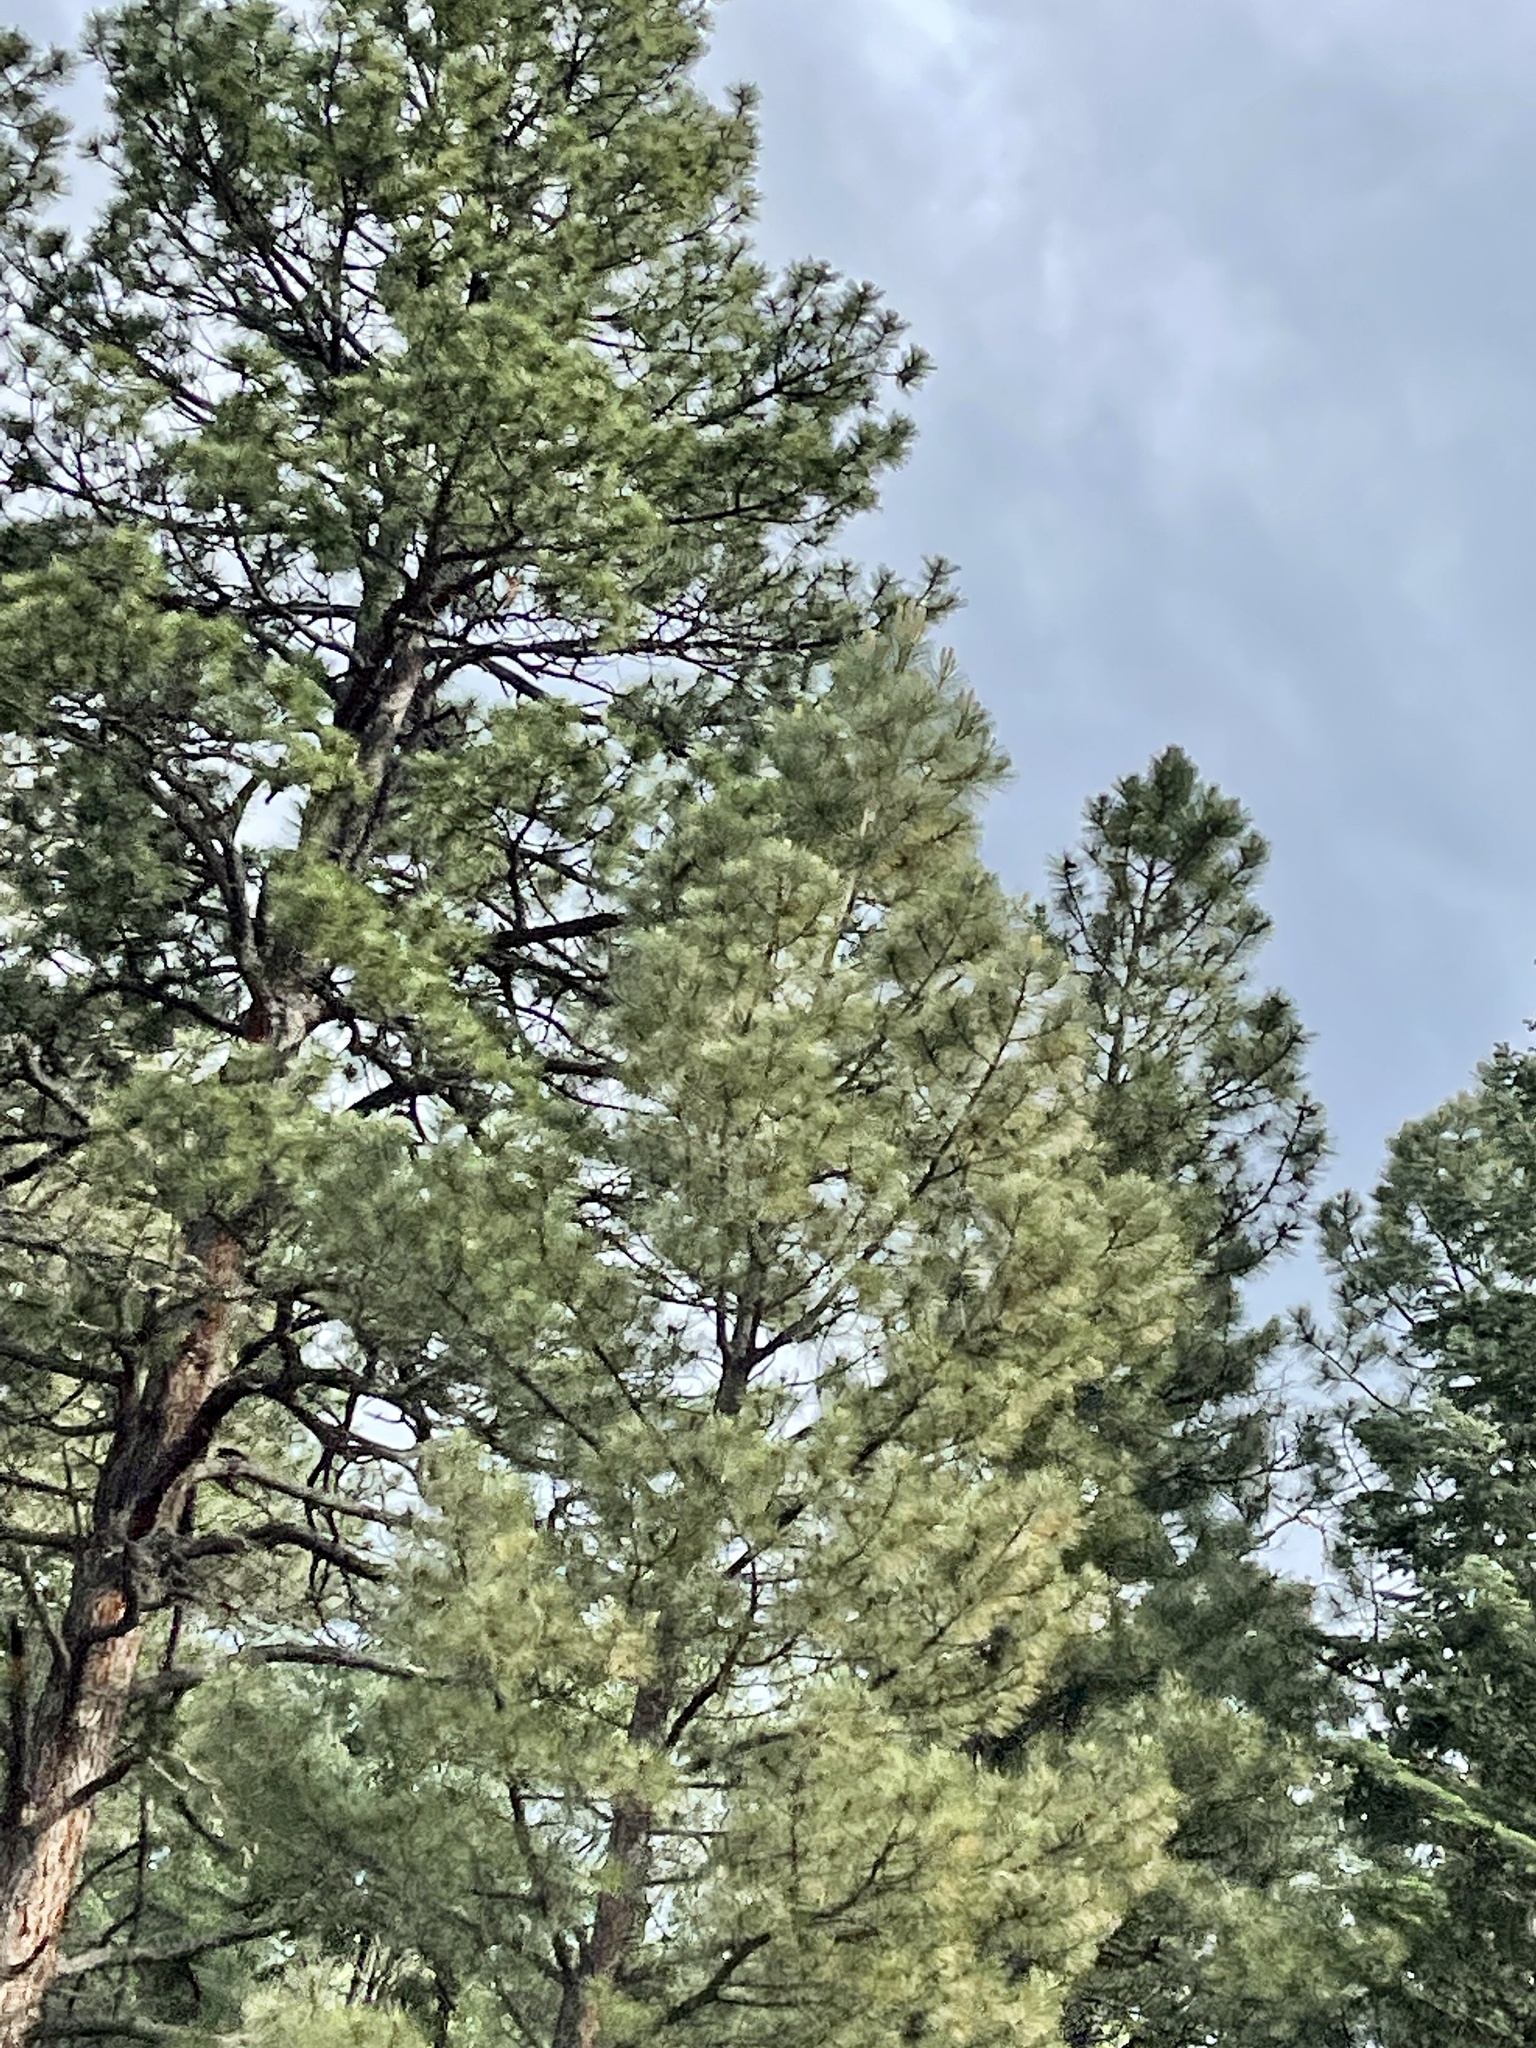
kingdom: Plantae
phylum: Tracheophyta
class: Pinopsida
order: Pinales
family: Pinaceae
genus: Pinus
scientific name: Pinus ponderosa
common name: Western yellow-pine
